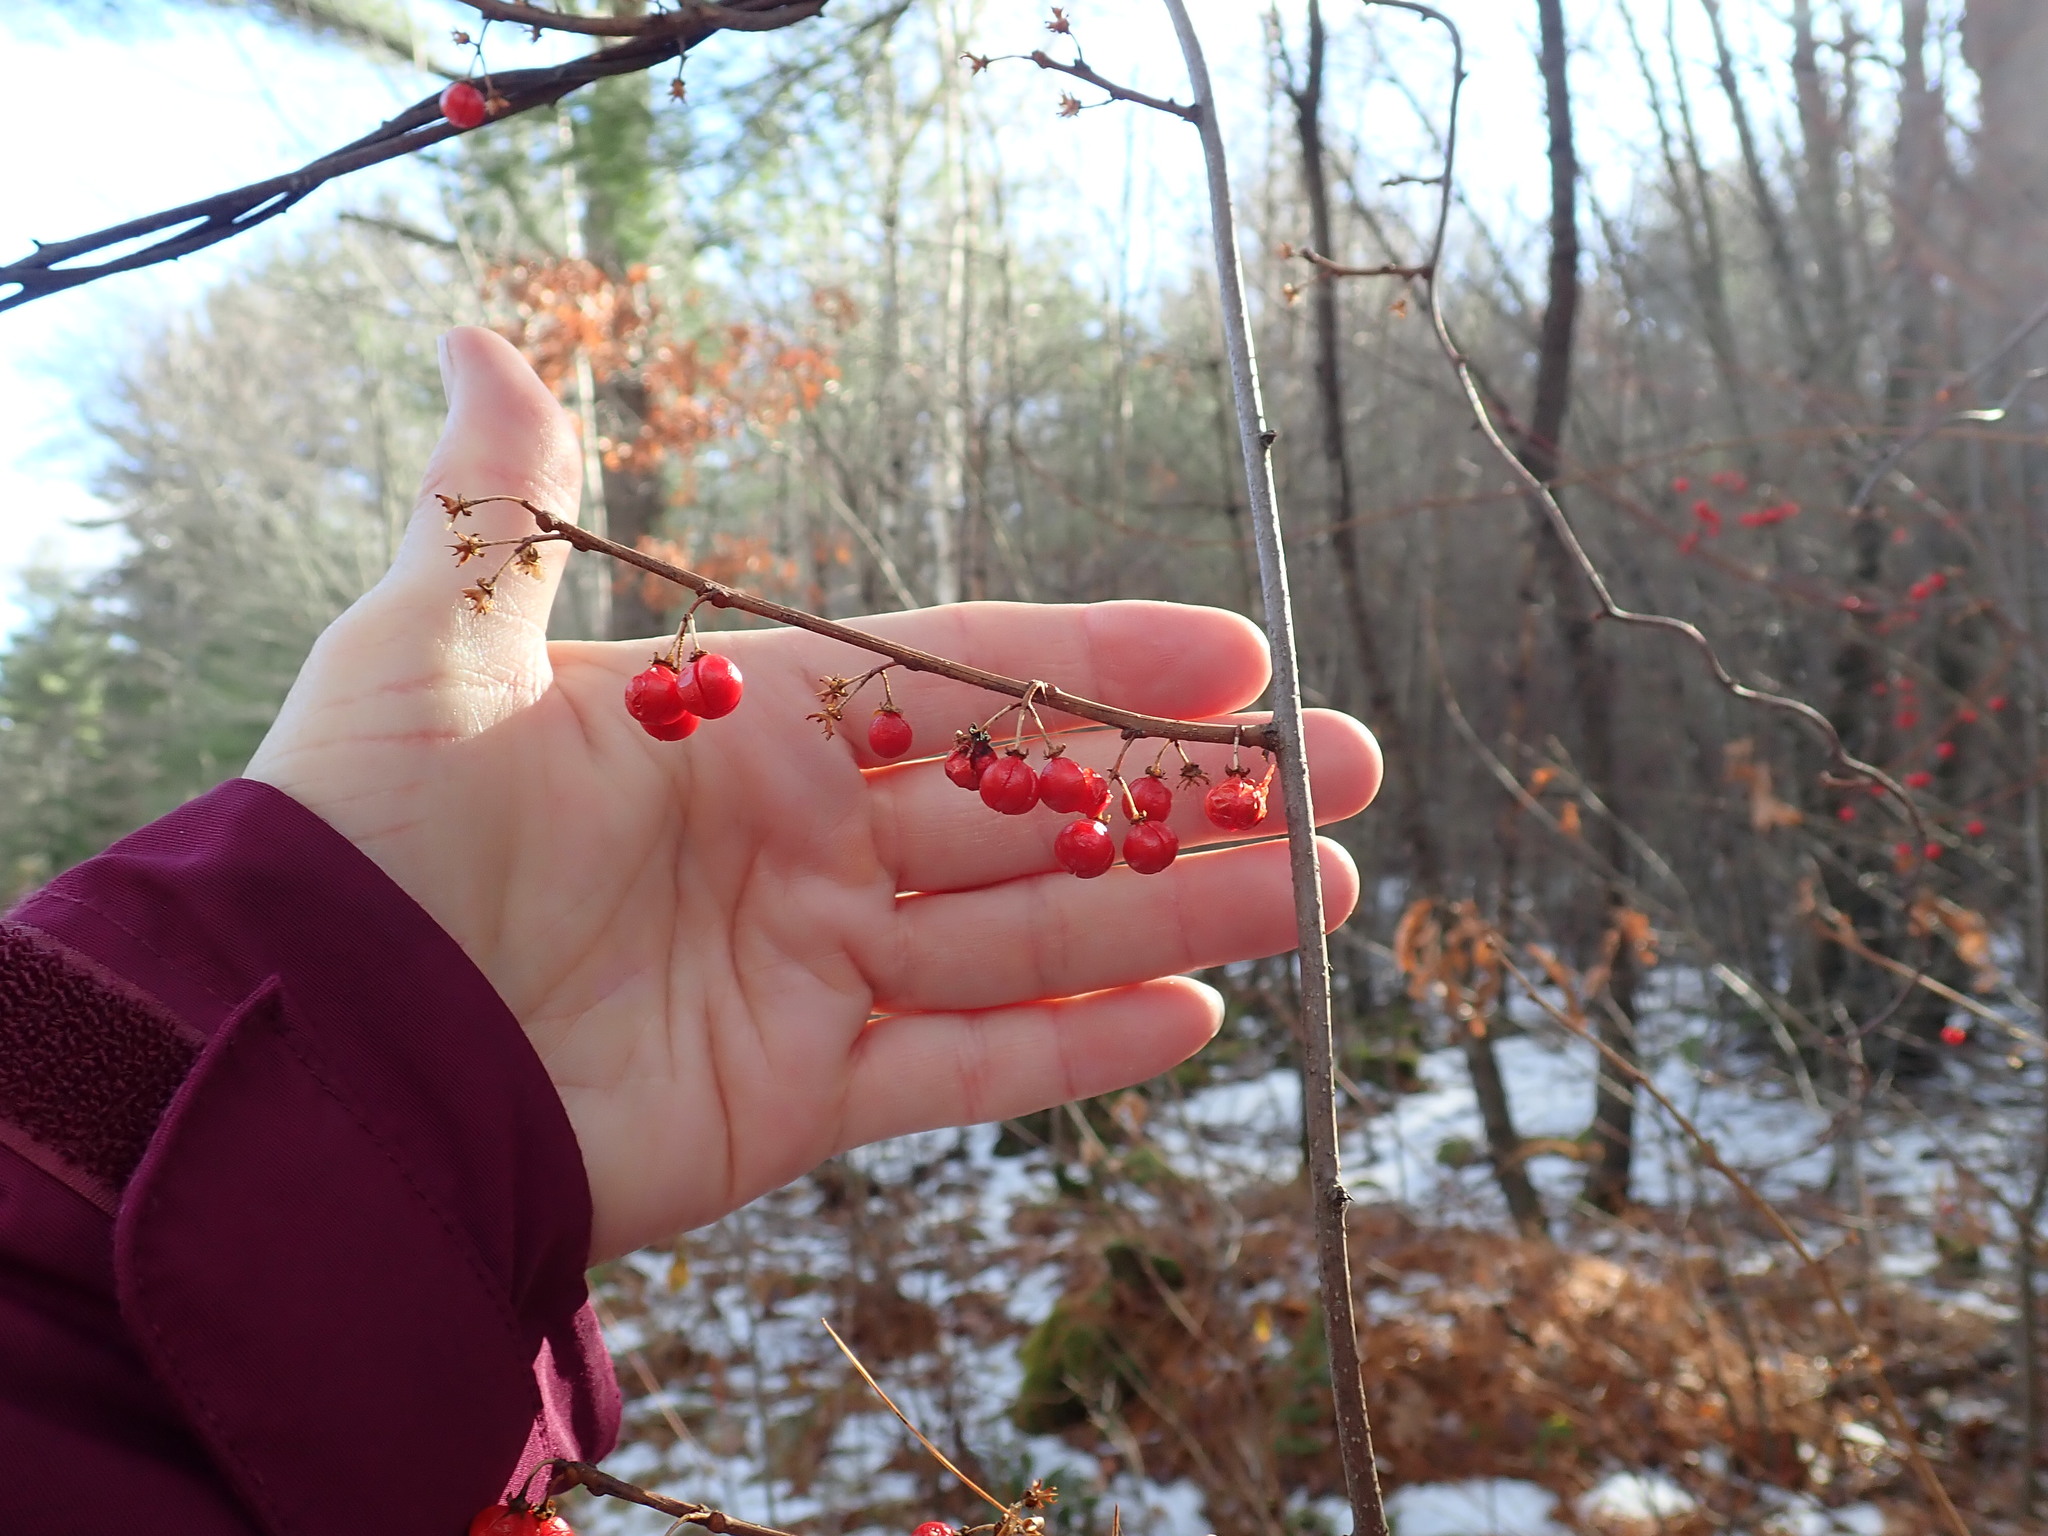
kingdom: Plantae
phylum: Tracheophyta
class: Magnoliopsida
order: Celastrales
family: Celastraceae
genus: Celastrus
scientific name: Celastrus orbiculatus
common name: Oriental bittersweet
